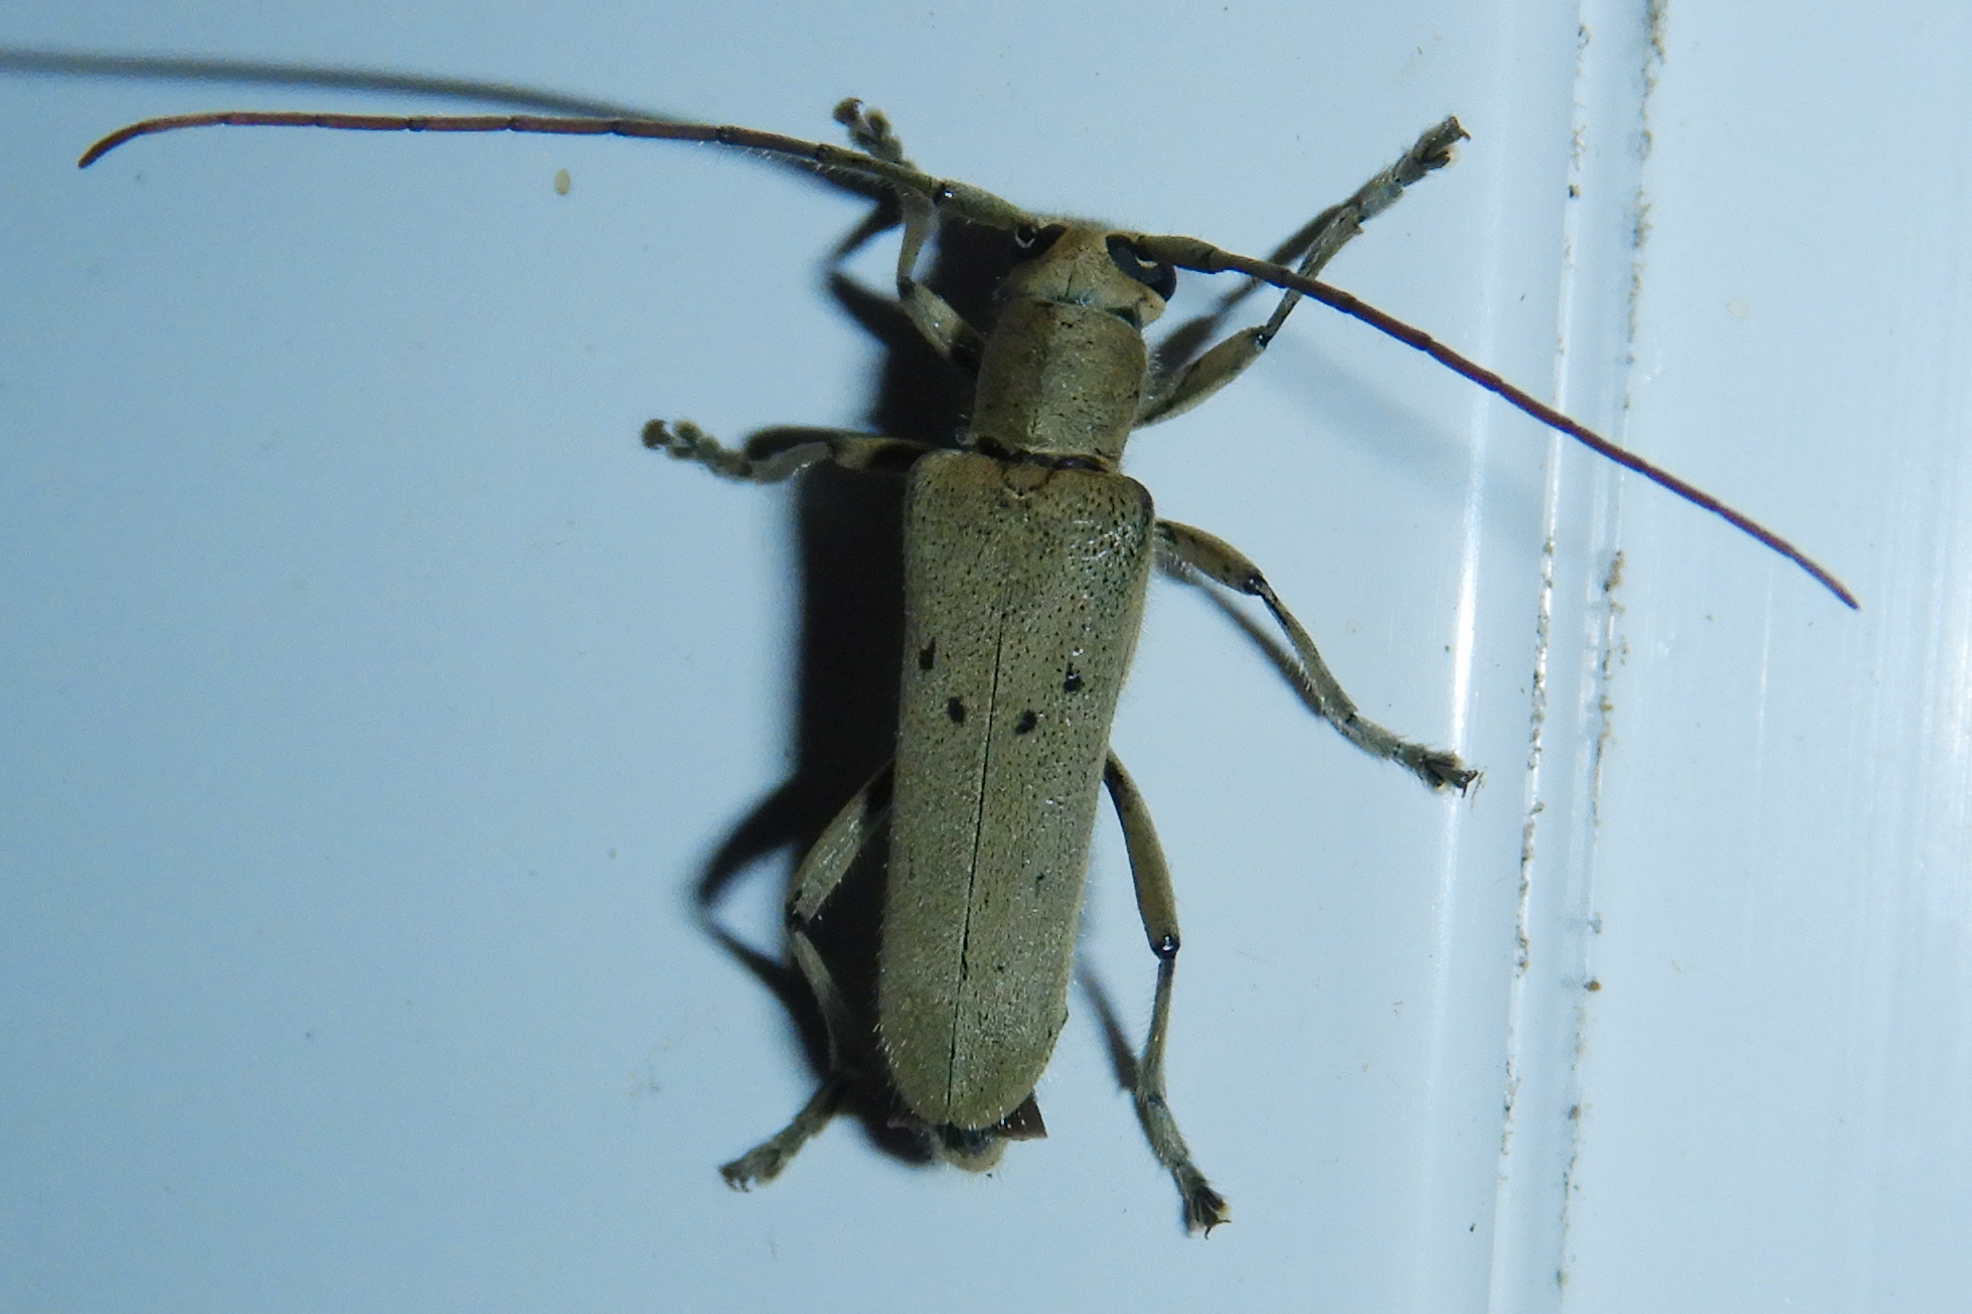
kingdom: Animalia
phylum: Arthropoda
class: Insecta
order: Coleoptera
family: Cerambycidae
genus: Saperda
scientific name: Saperda vestita
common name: Linden borer
